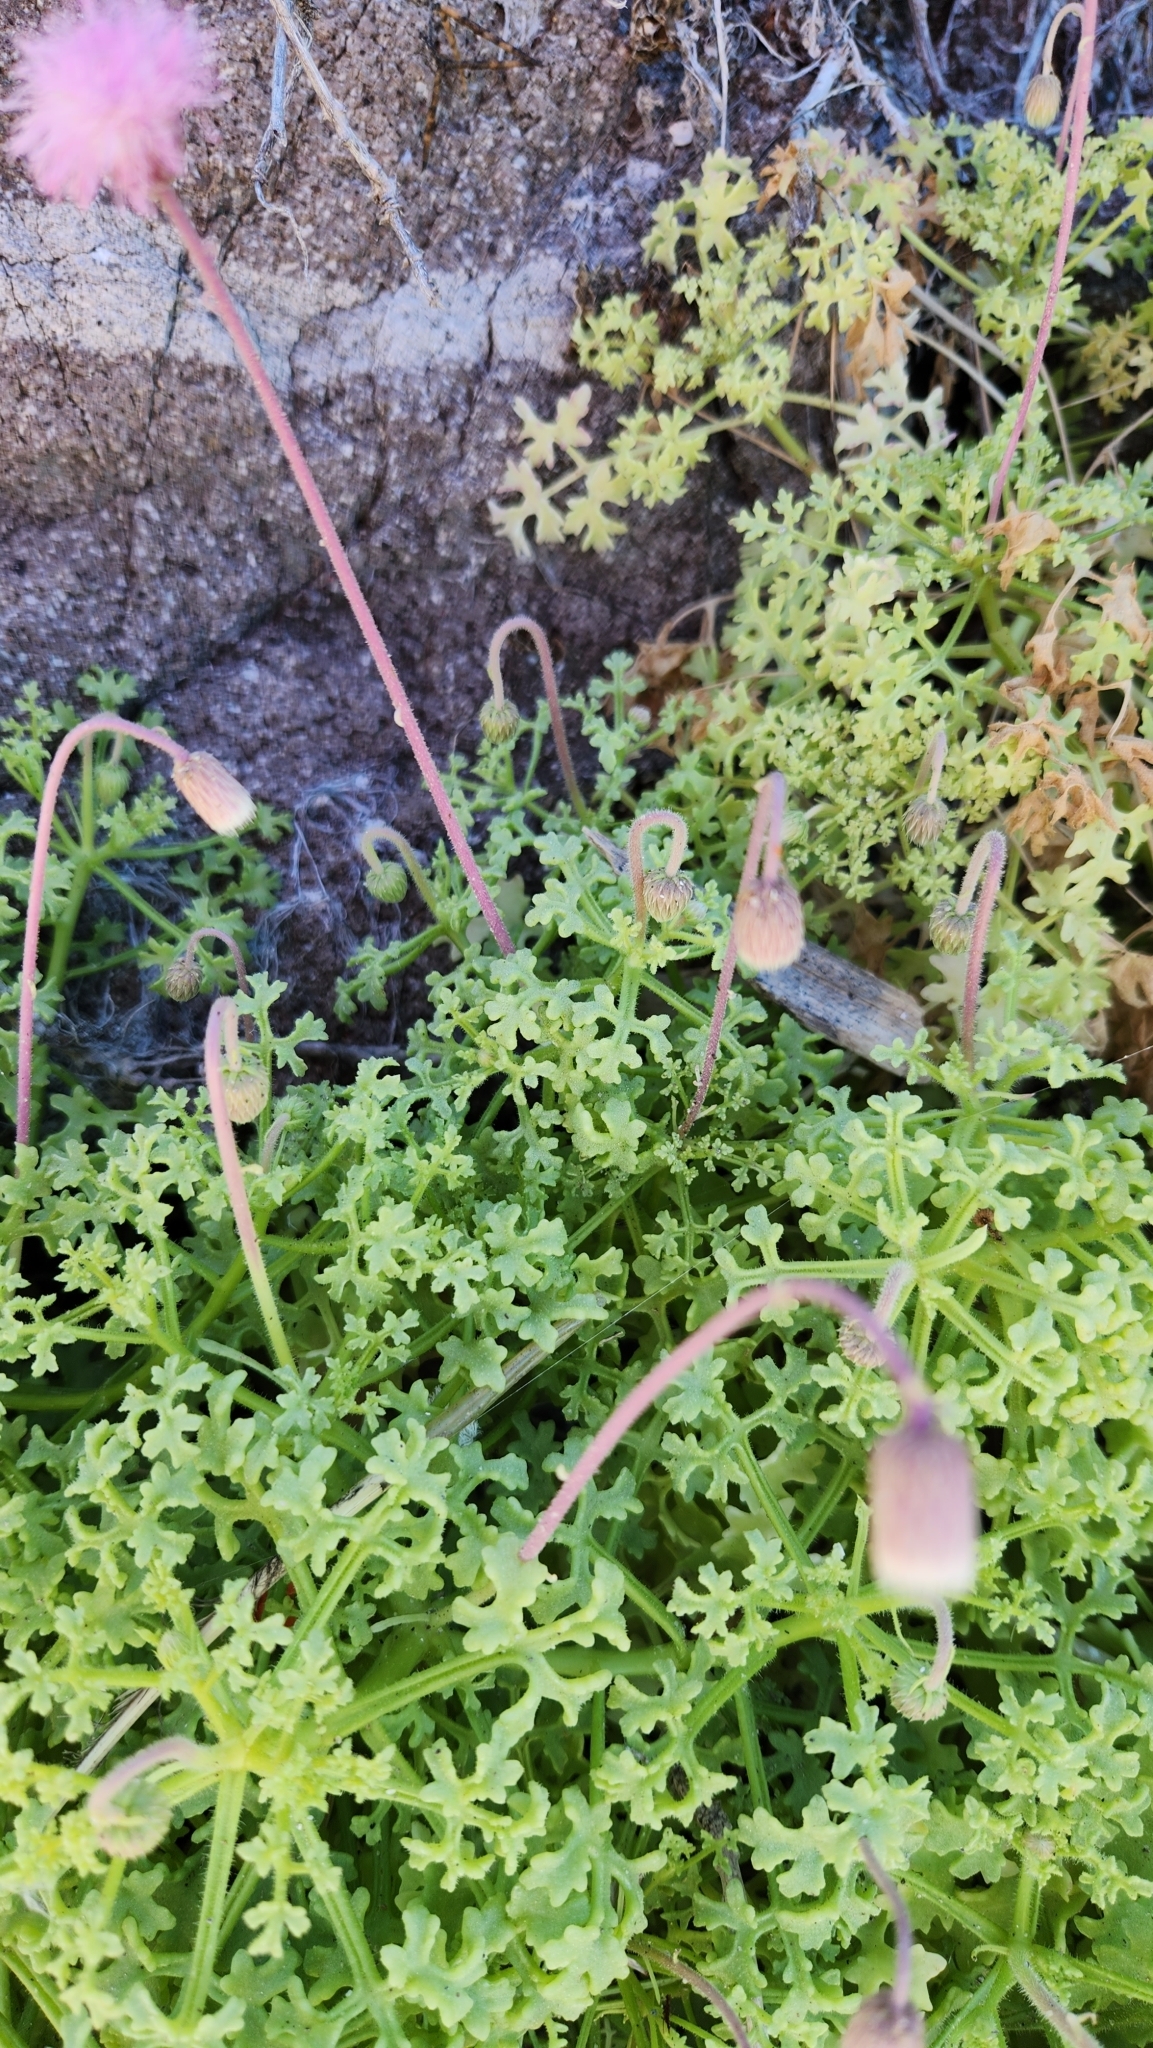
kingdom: Plantae
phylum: Tracheophyta
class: Magnoliopsida
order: Asterales
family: Asteraceae
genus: Hofmeisteria
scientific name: Hofmeisteria fasciculata
